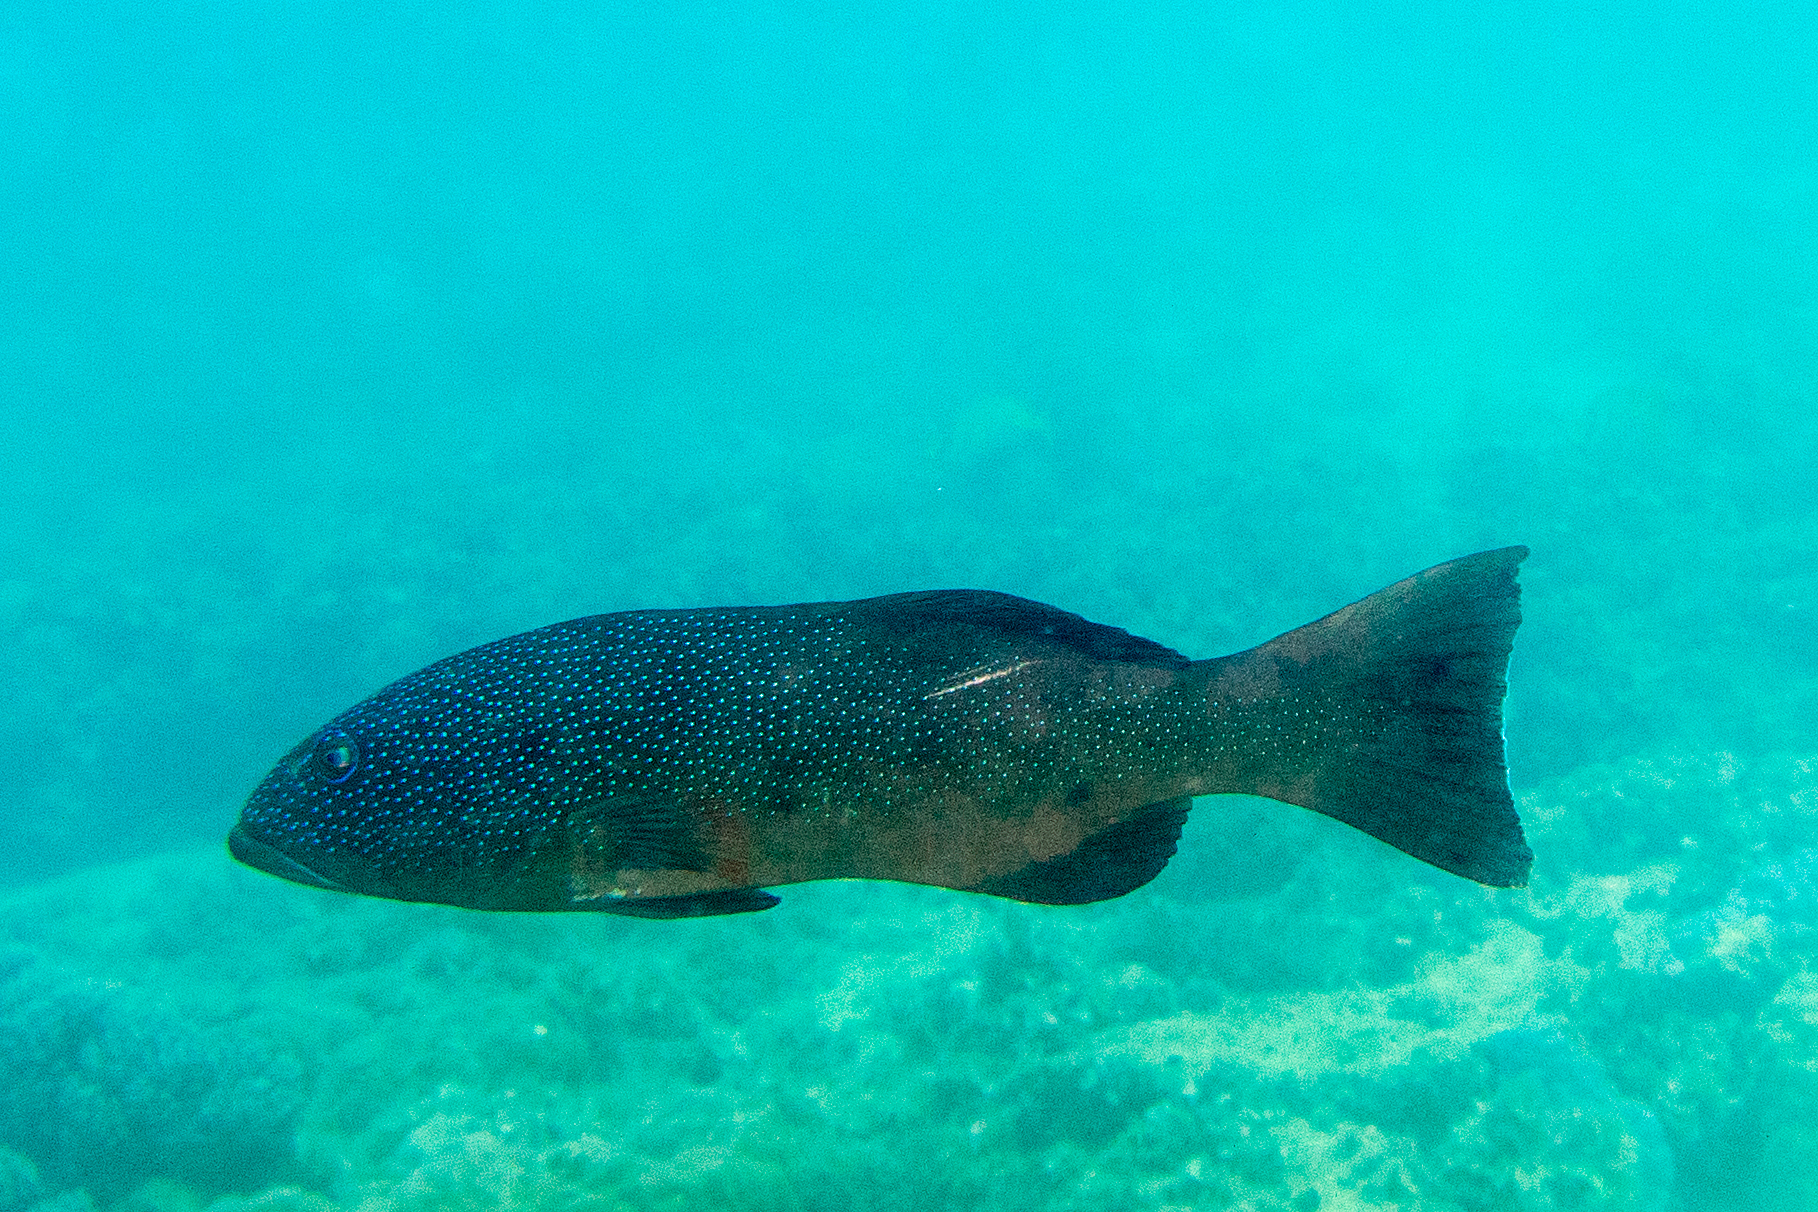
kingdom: Animalia
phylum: Chordata
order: Perciformes
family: Serranidae
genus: Plectropomus
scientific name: Plectropomus leopardus
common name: Coral trout
